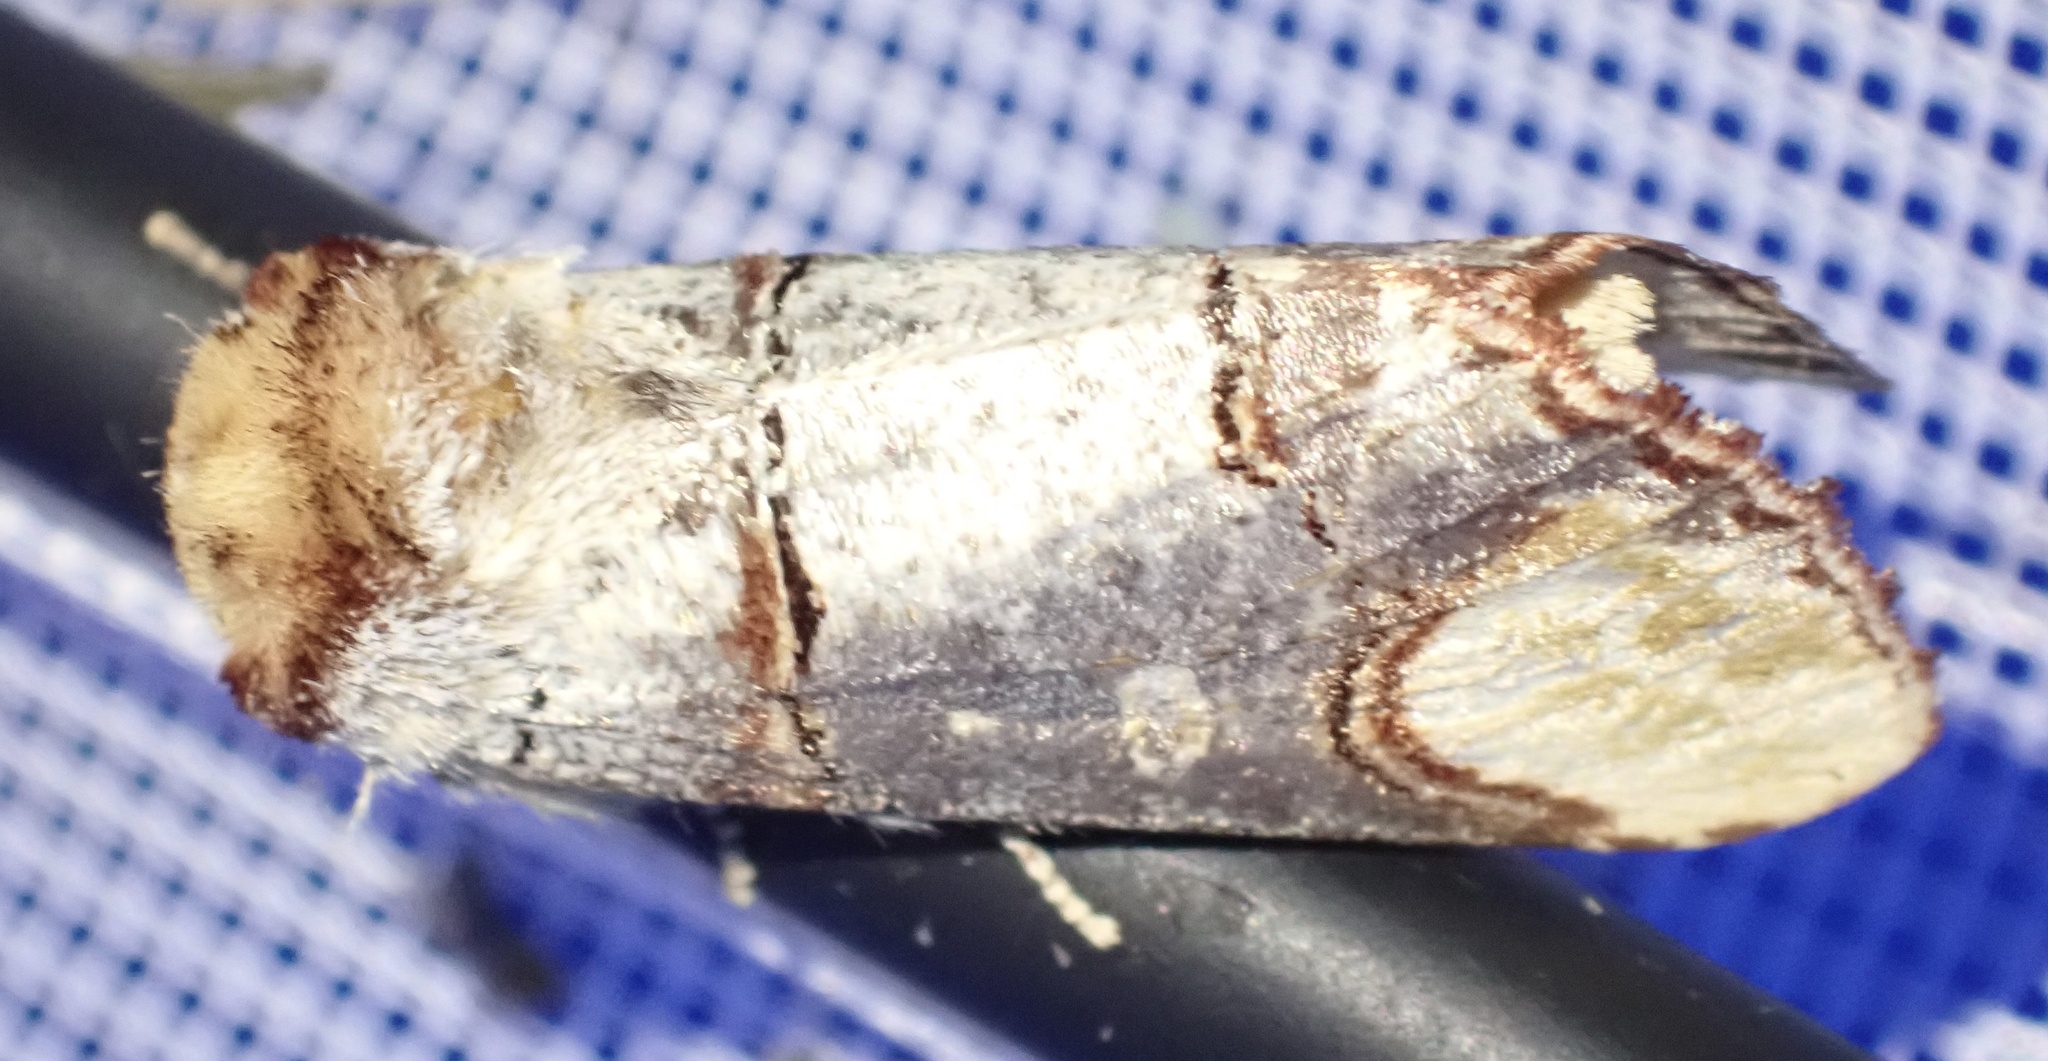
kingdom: Animalia
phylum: Arthropoda
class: Insecta
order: Lepidoptera
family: Notodontidae
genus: Phalera
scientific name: Phalera bucephala
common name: Buff-tip
